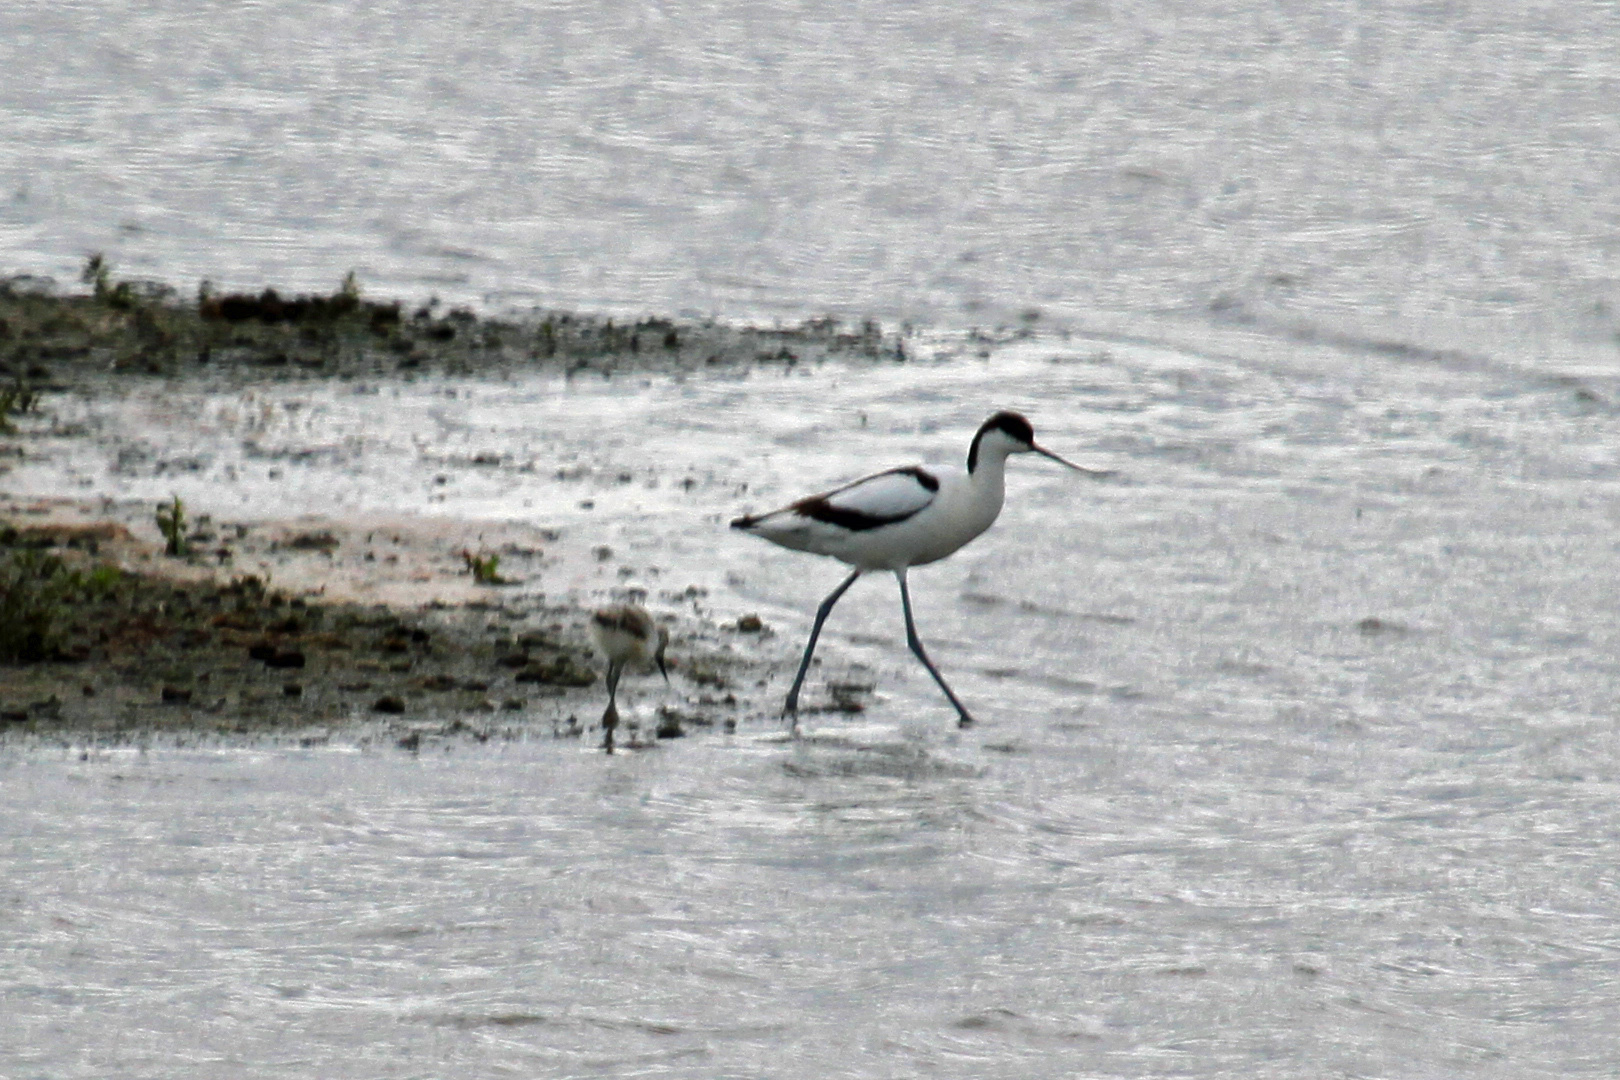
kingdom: Animalia
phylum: Chordata
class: Aves
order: Charadriiformes
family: Recurvirostridae
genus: Recurvirostra
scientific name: Recurvirostra avosetta
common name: Pied avocet
